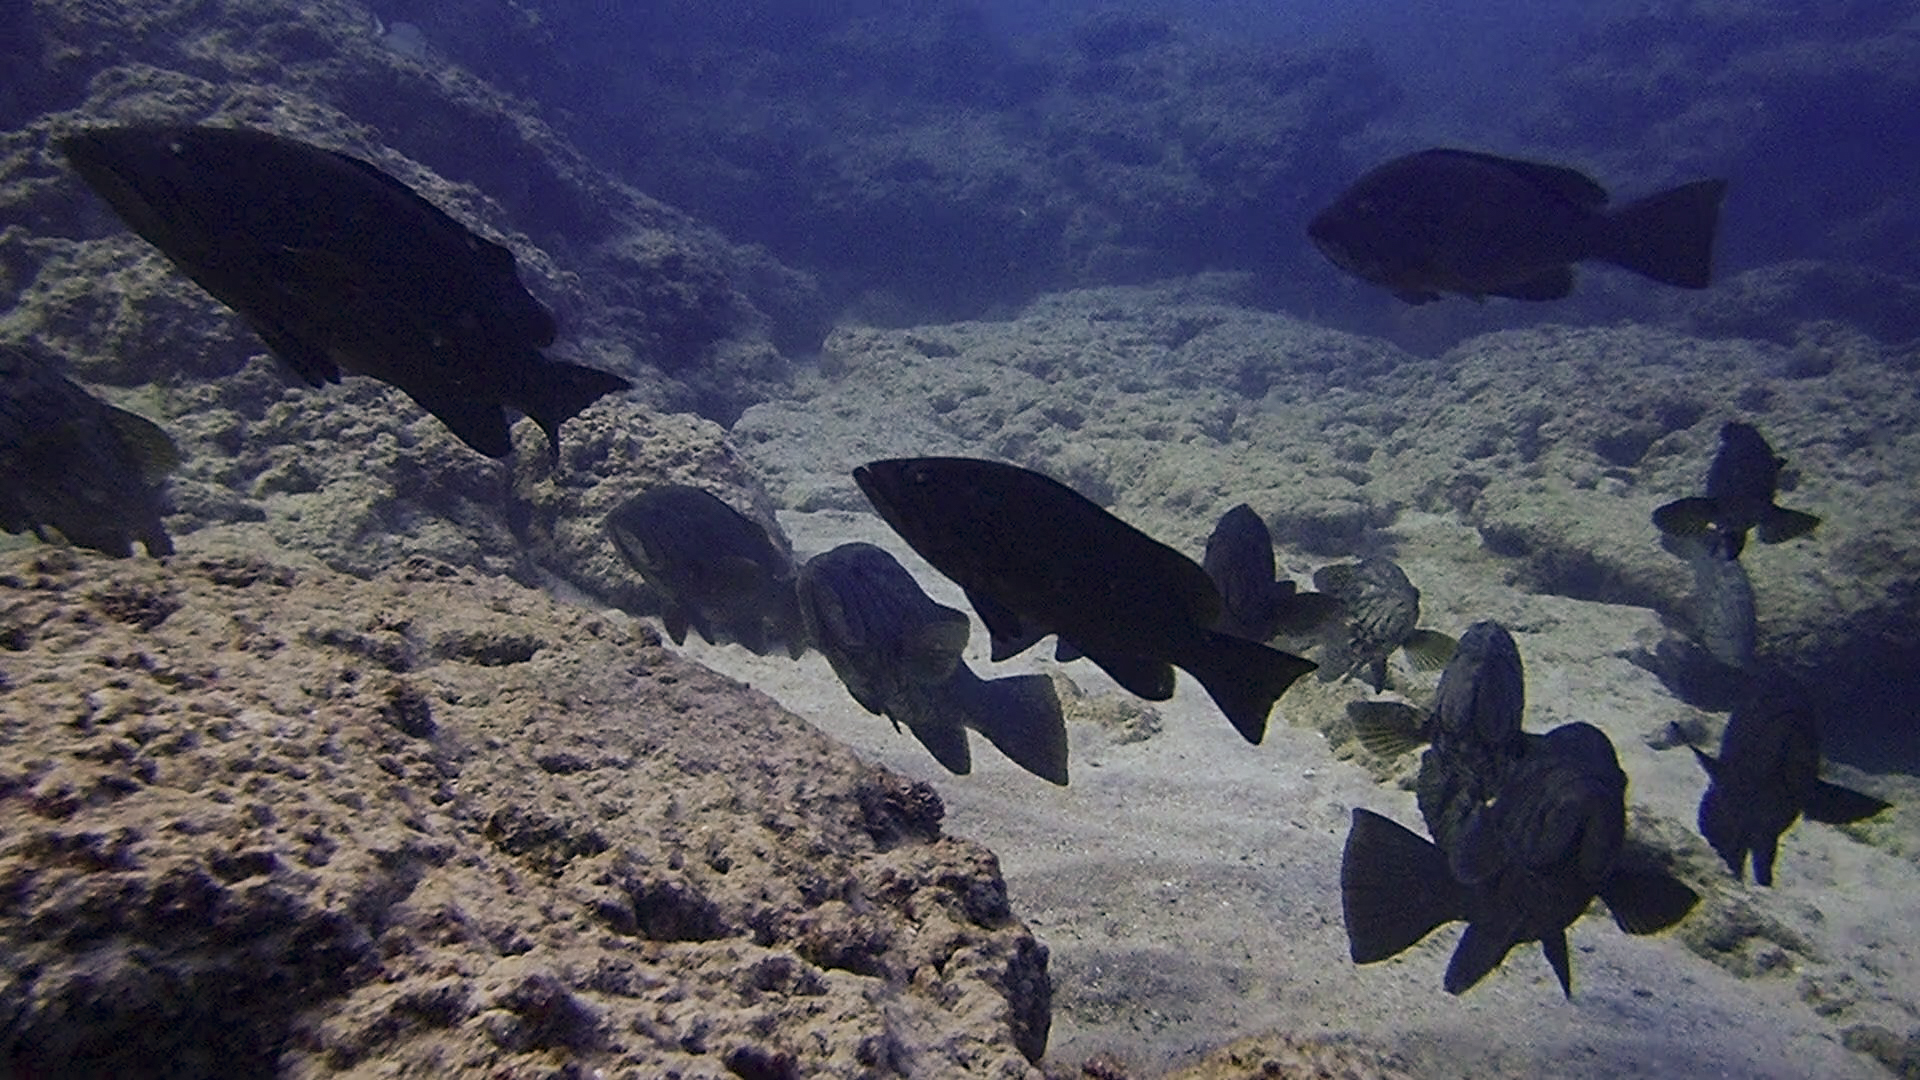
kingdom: Animalia
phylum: Chordata
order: Perciformes
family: Serranidae
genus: Mycteroperca
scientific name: Mycteroperca rubra
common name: Comb grouper
